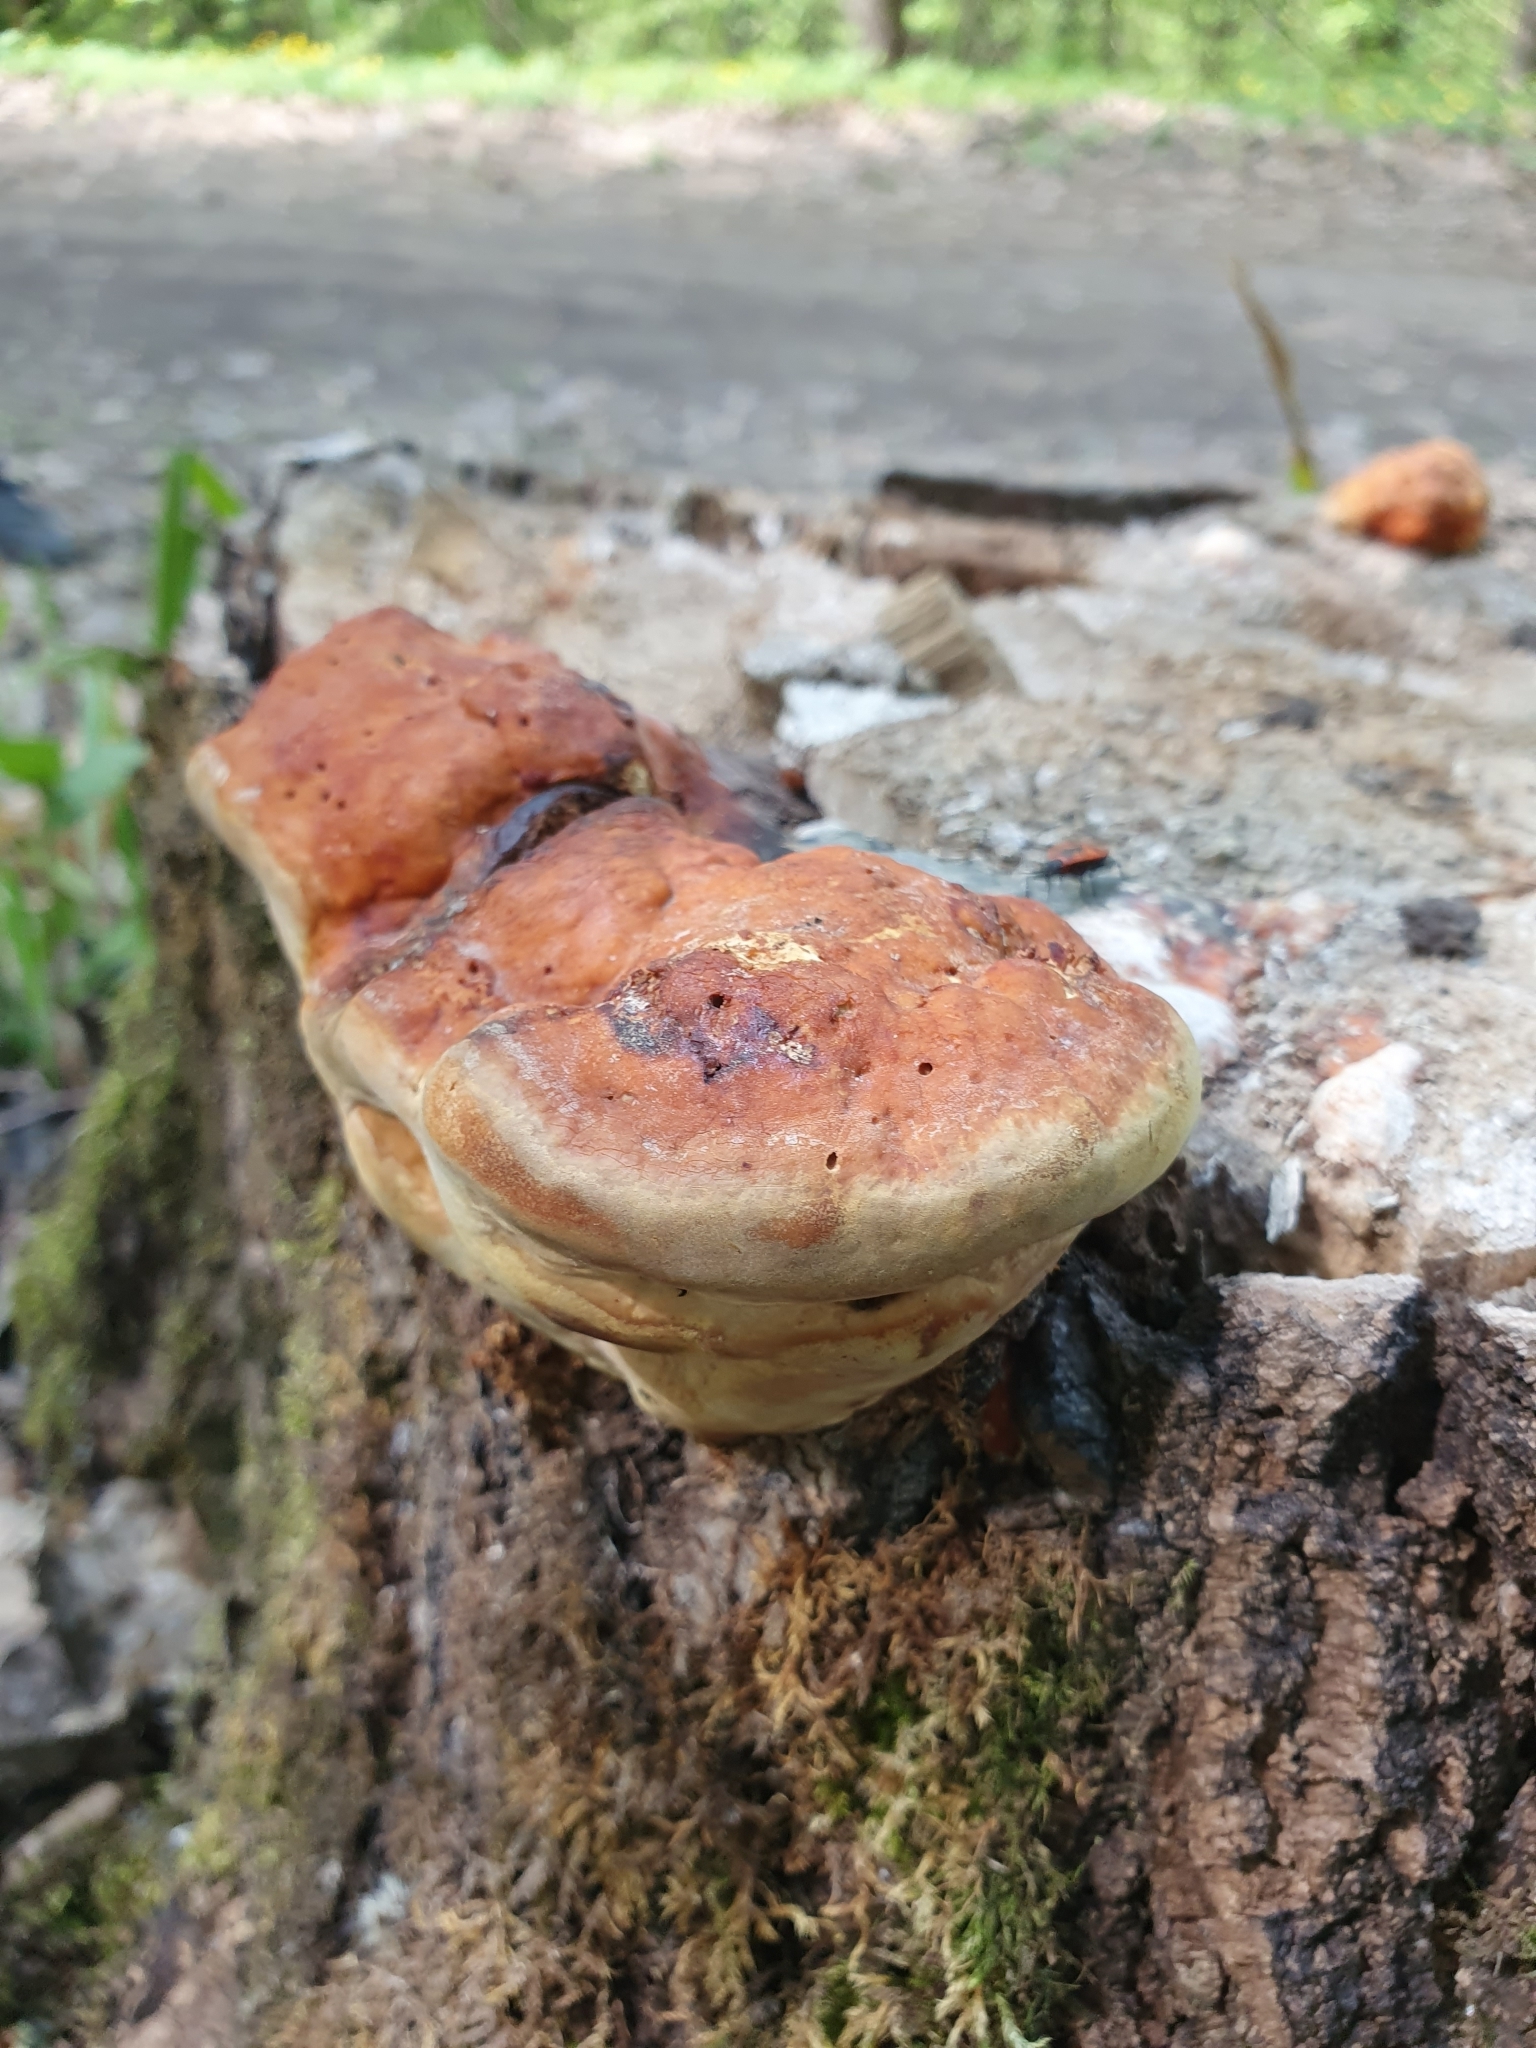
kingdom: Fungi
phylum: Basidiomycota
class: Agaricomycetes
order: Polyporales
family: Fomitopsidaceae
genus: Fomitopsis
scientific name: Fomitopsis pinicola
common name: Red-belted bracket
